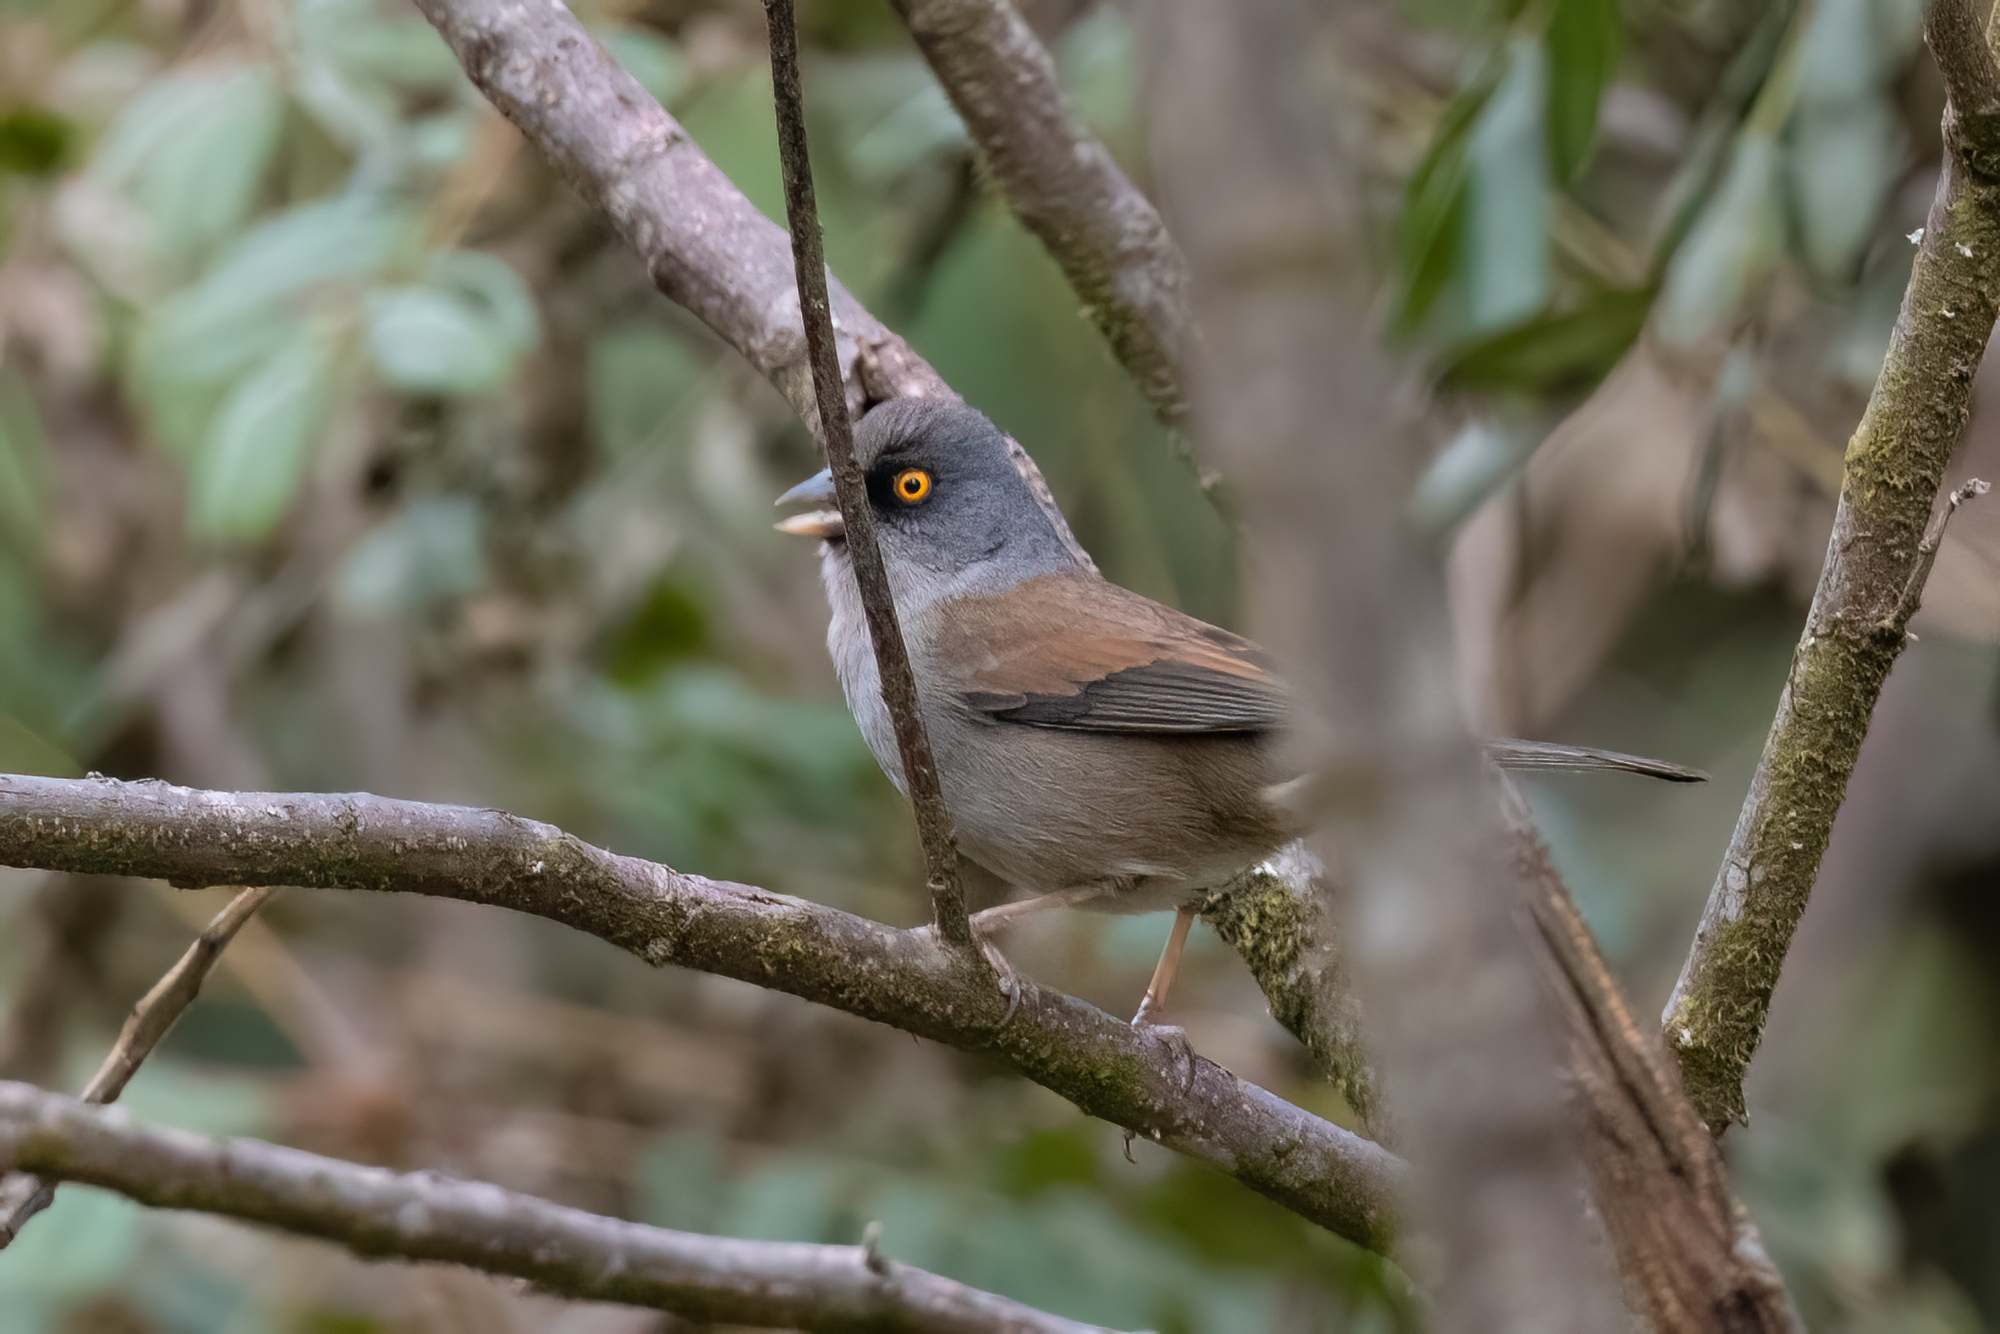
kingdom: Animalia
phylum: Chordata
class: Aves
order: Passeriformes
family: Passerellidae
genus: Junco
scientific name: Junco phaeonotus
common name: Yellow-eyed junco
